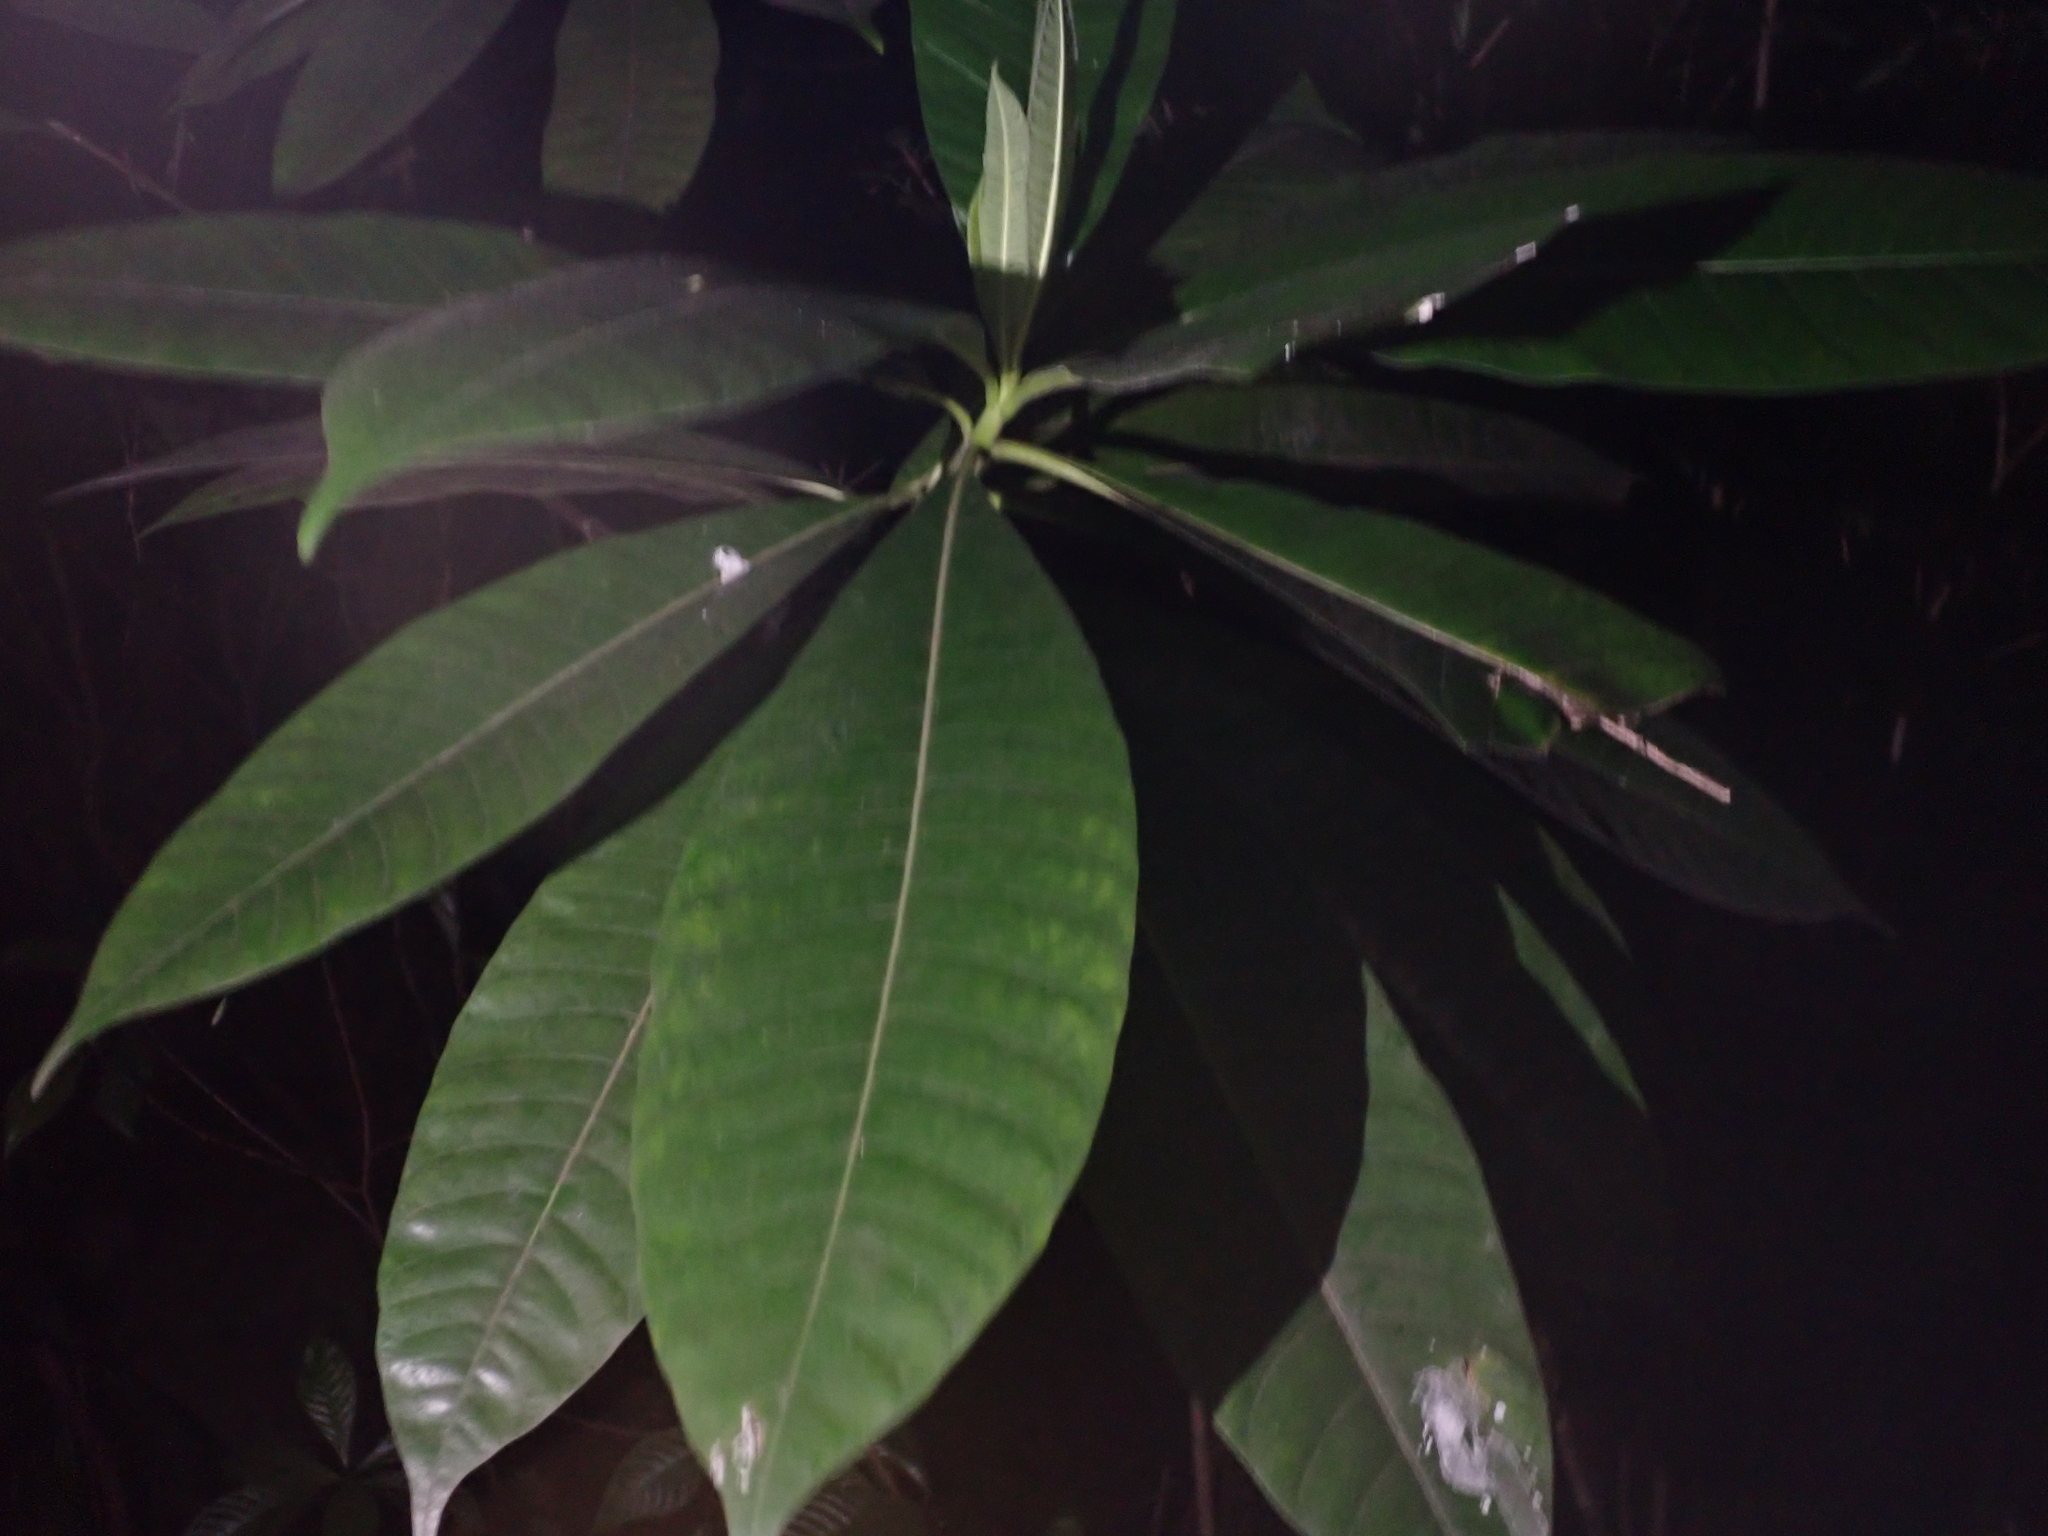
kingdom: Plantae
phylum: Tracheophyta
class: Magnoliopsida
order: Gentianales
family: Apocynaceae
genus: Alstonia
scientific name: Alstonia macrophylla
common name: Deviltree
